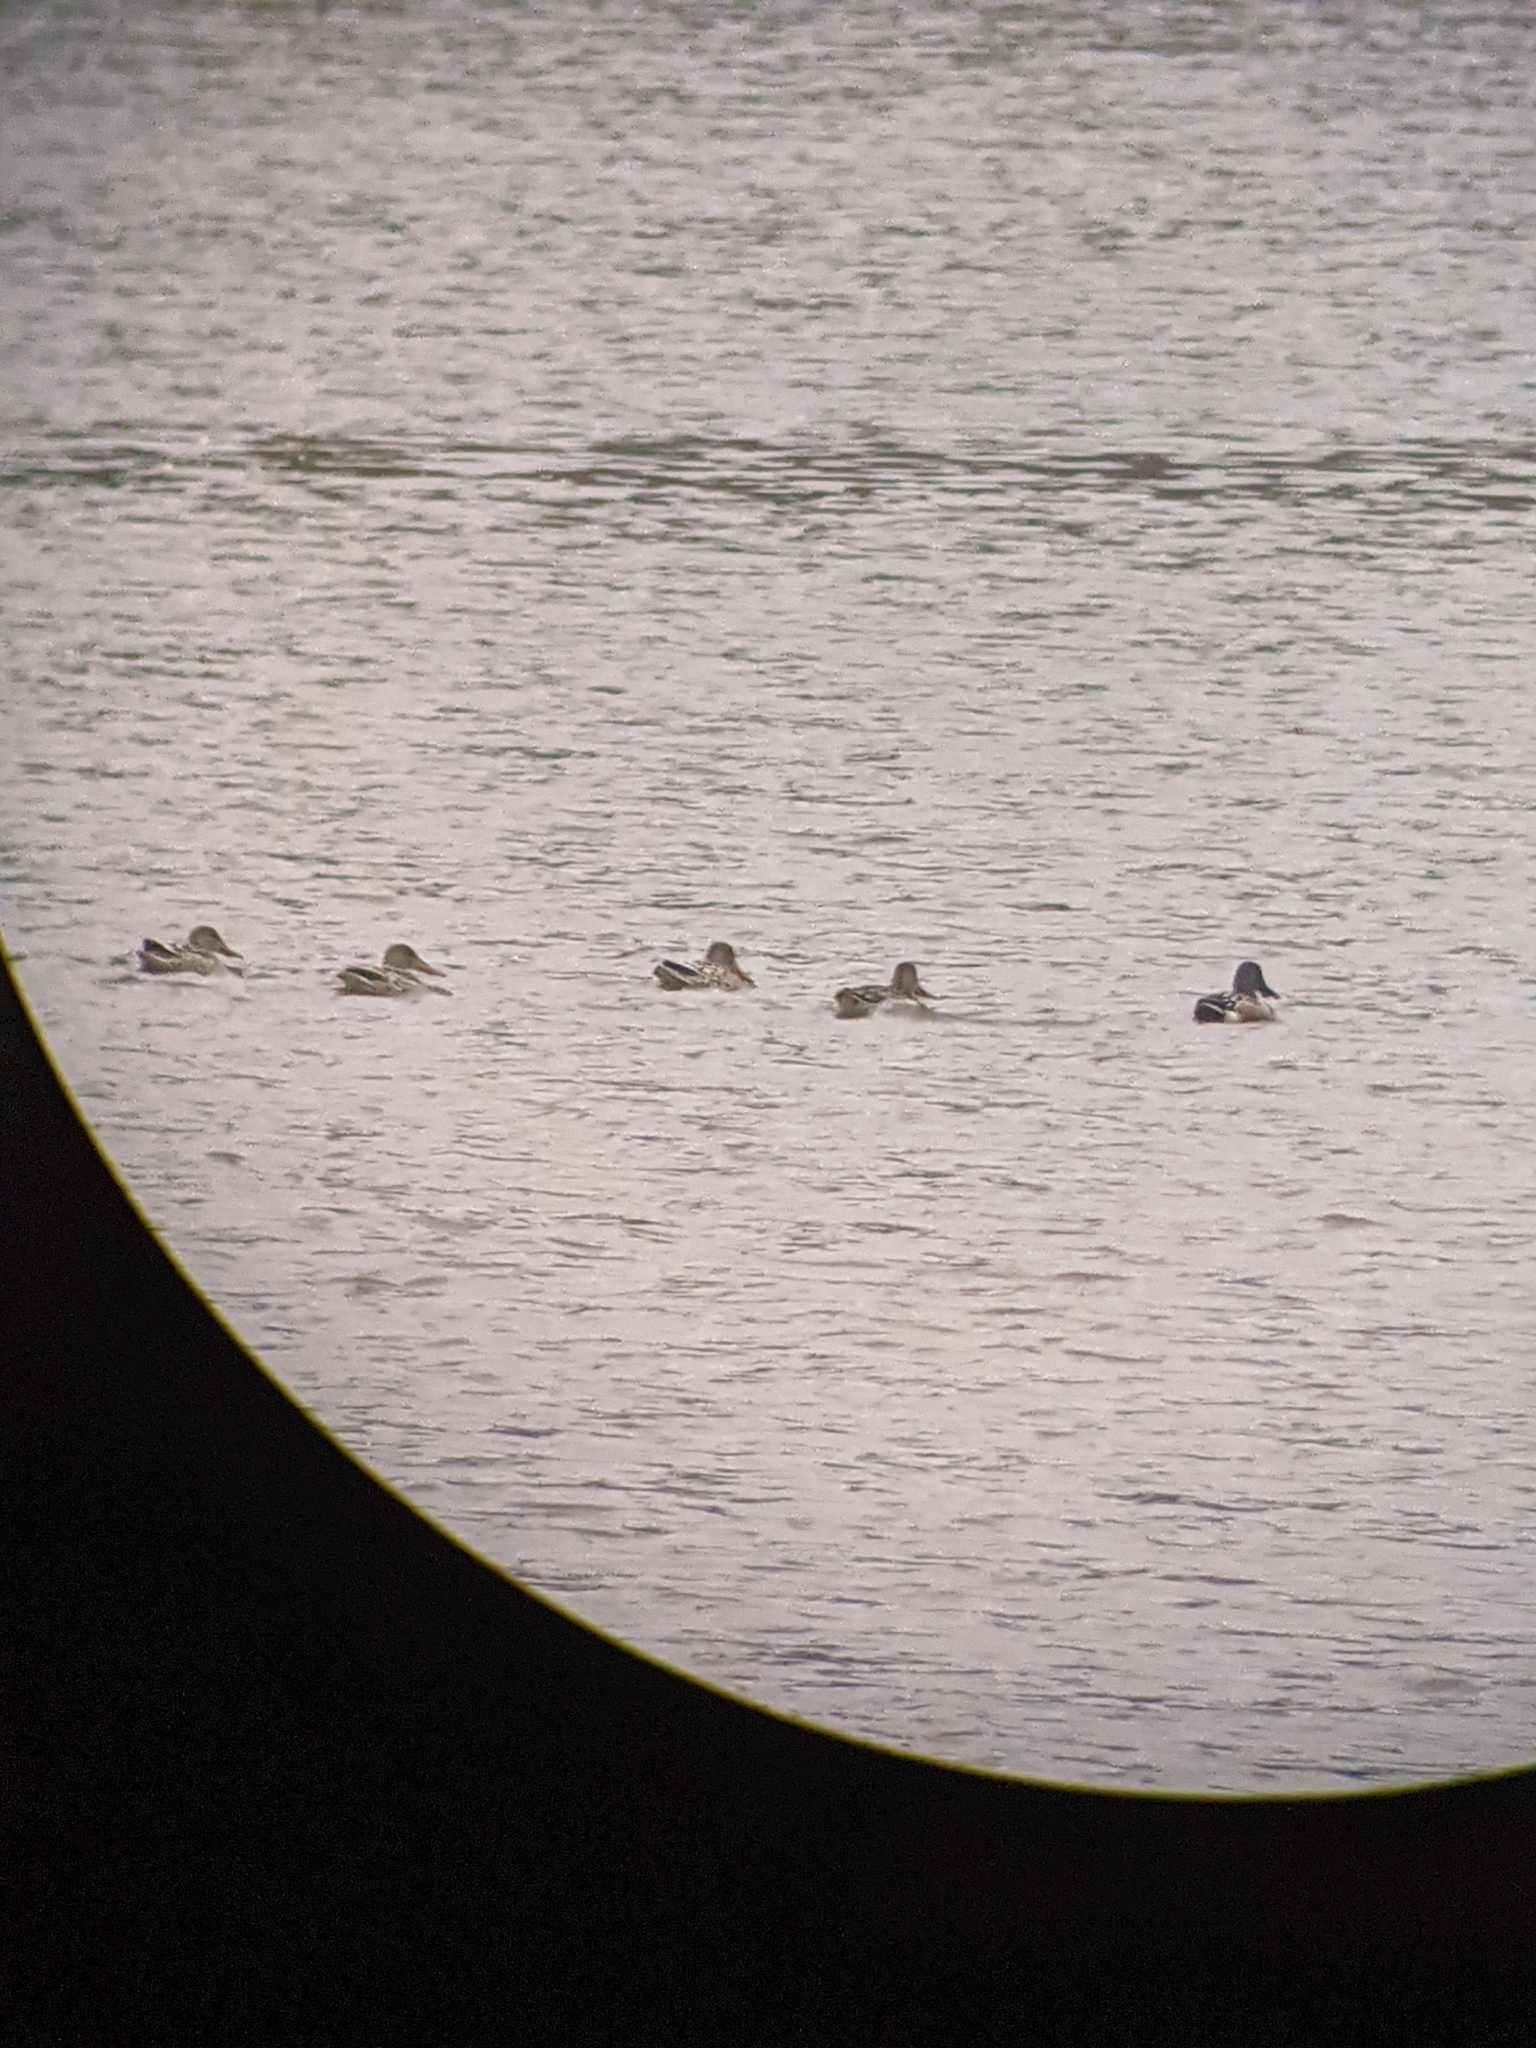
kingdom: Animalia
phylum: Chordata
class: Aves
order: Anseriformes
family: Anatidae
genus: Spatula
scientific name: Spatula clypeata
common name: Northern shoveler
